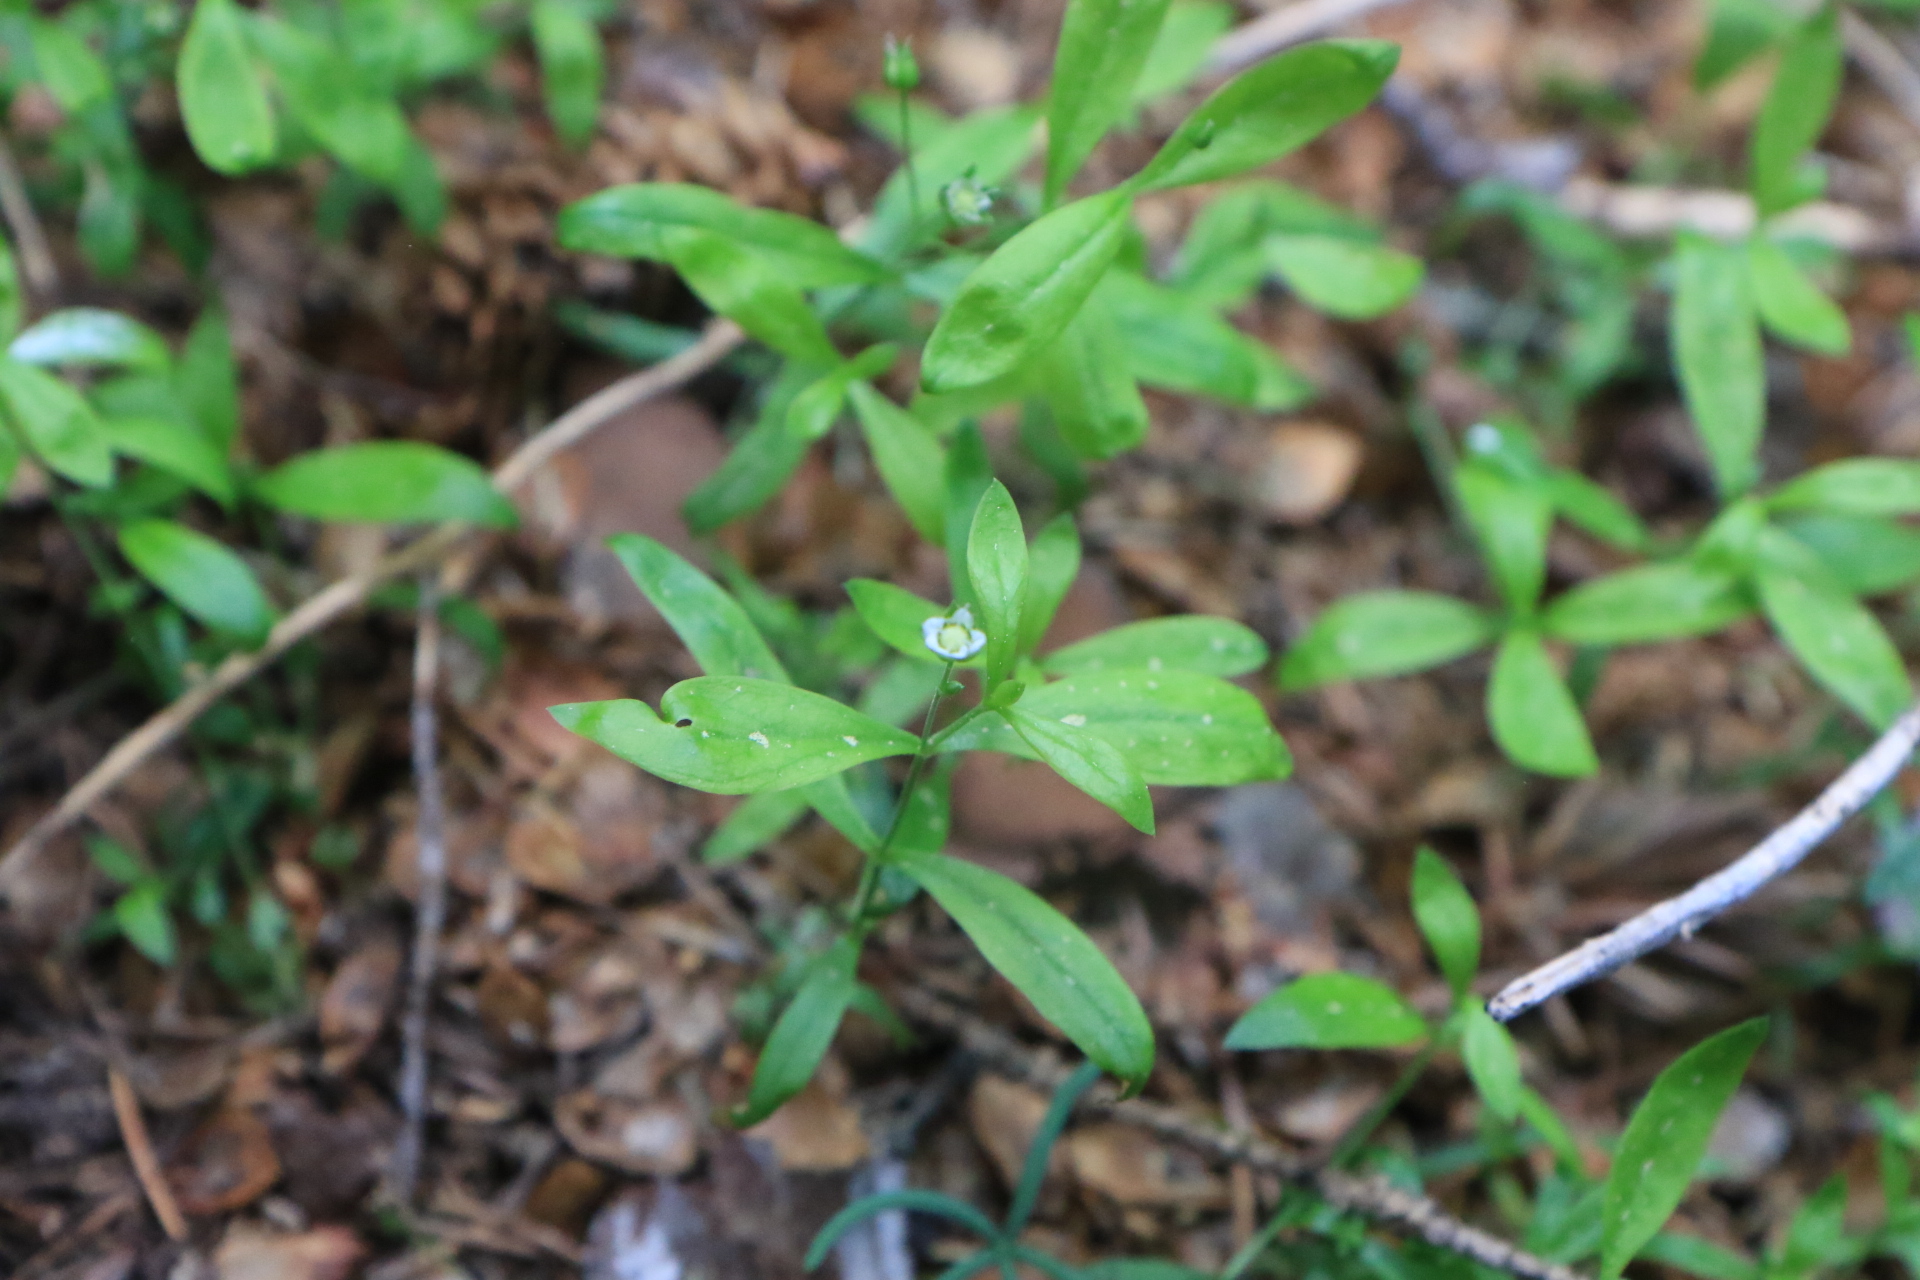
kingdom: Plantae
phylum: Tracheophyta
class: Magnoliopsida
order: Caryophyllales
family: Caryophyllaceae
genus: Moehringia
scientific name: Moehringia macrophylla
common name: Big-leaf sandwort
